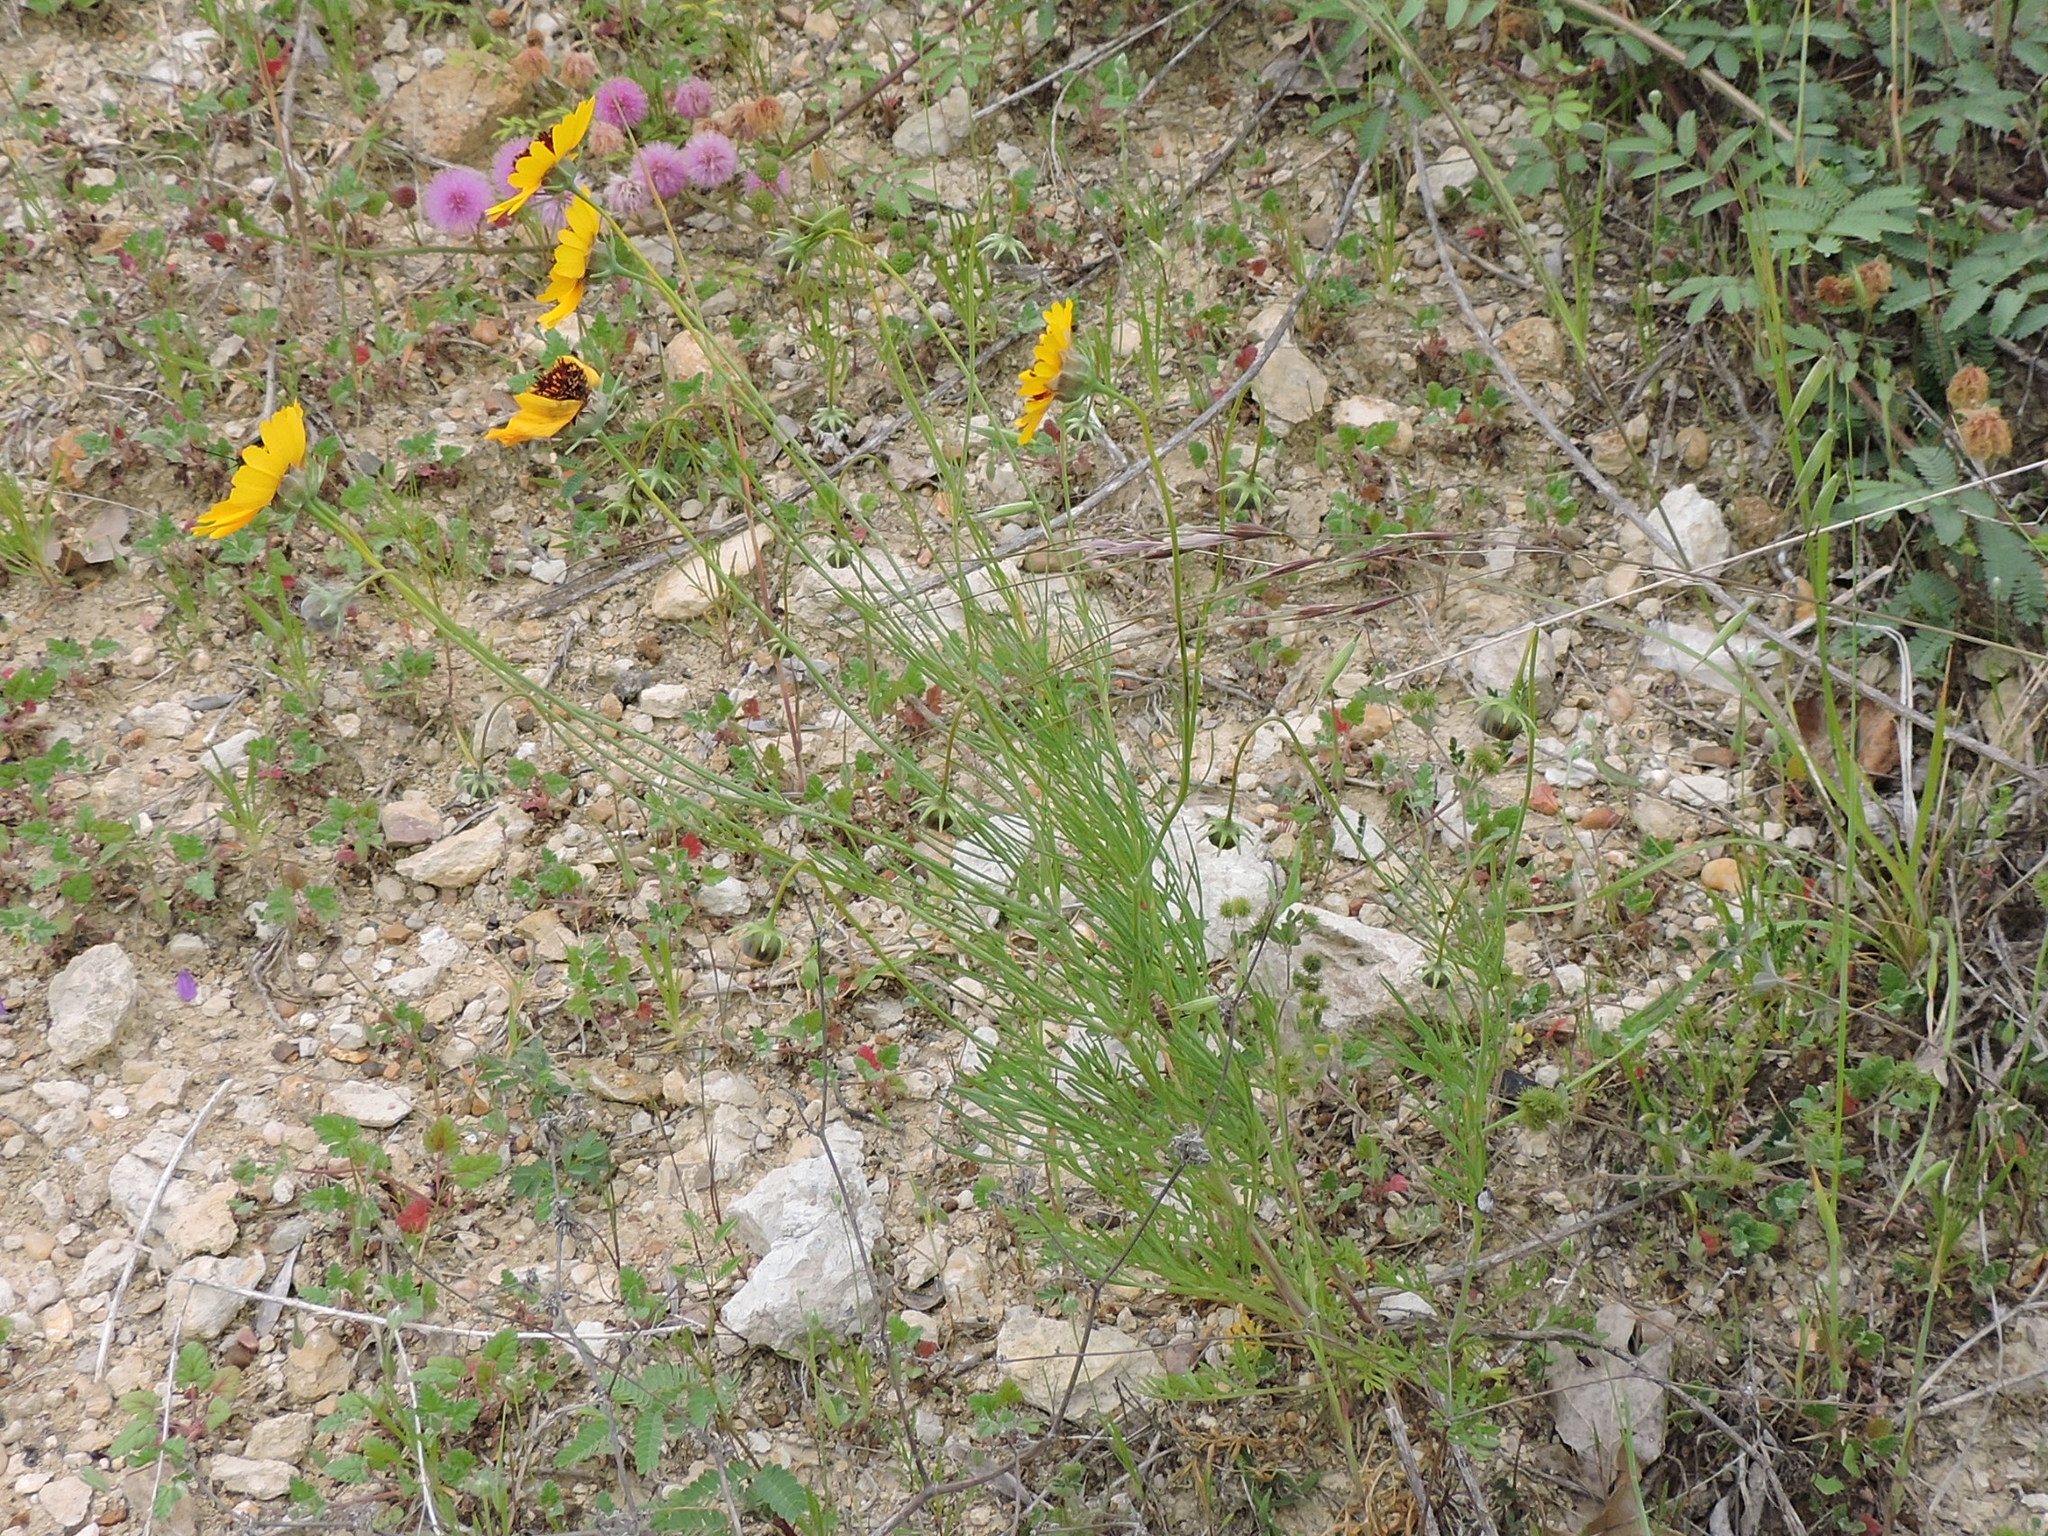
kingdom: Plantae
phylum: Tracheophyta
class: Magnoliopsida
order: Asterales
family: Asteraceae
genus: Thelesperma
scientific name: Thelesperma filifolium
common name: Stiff greenthread
